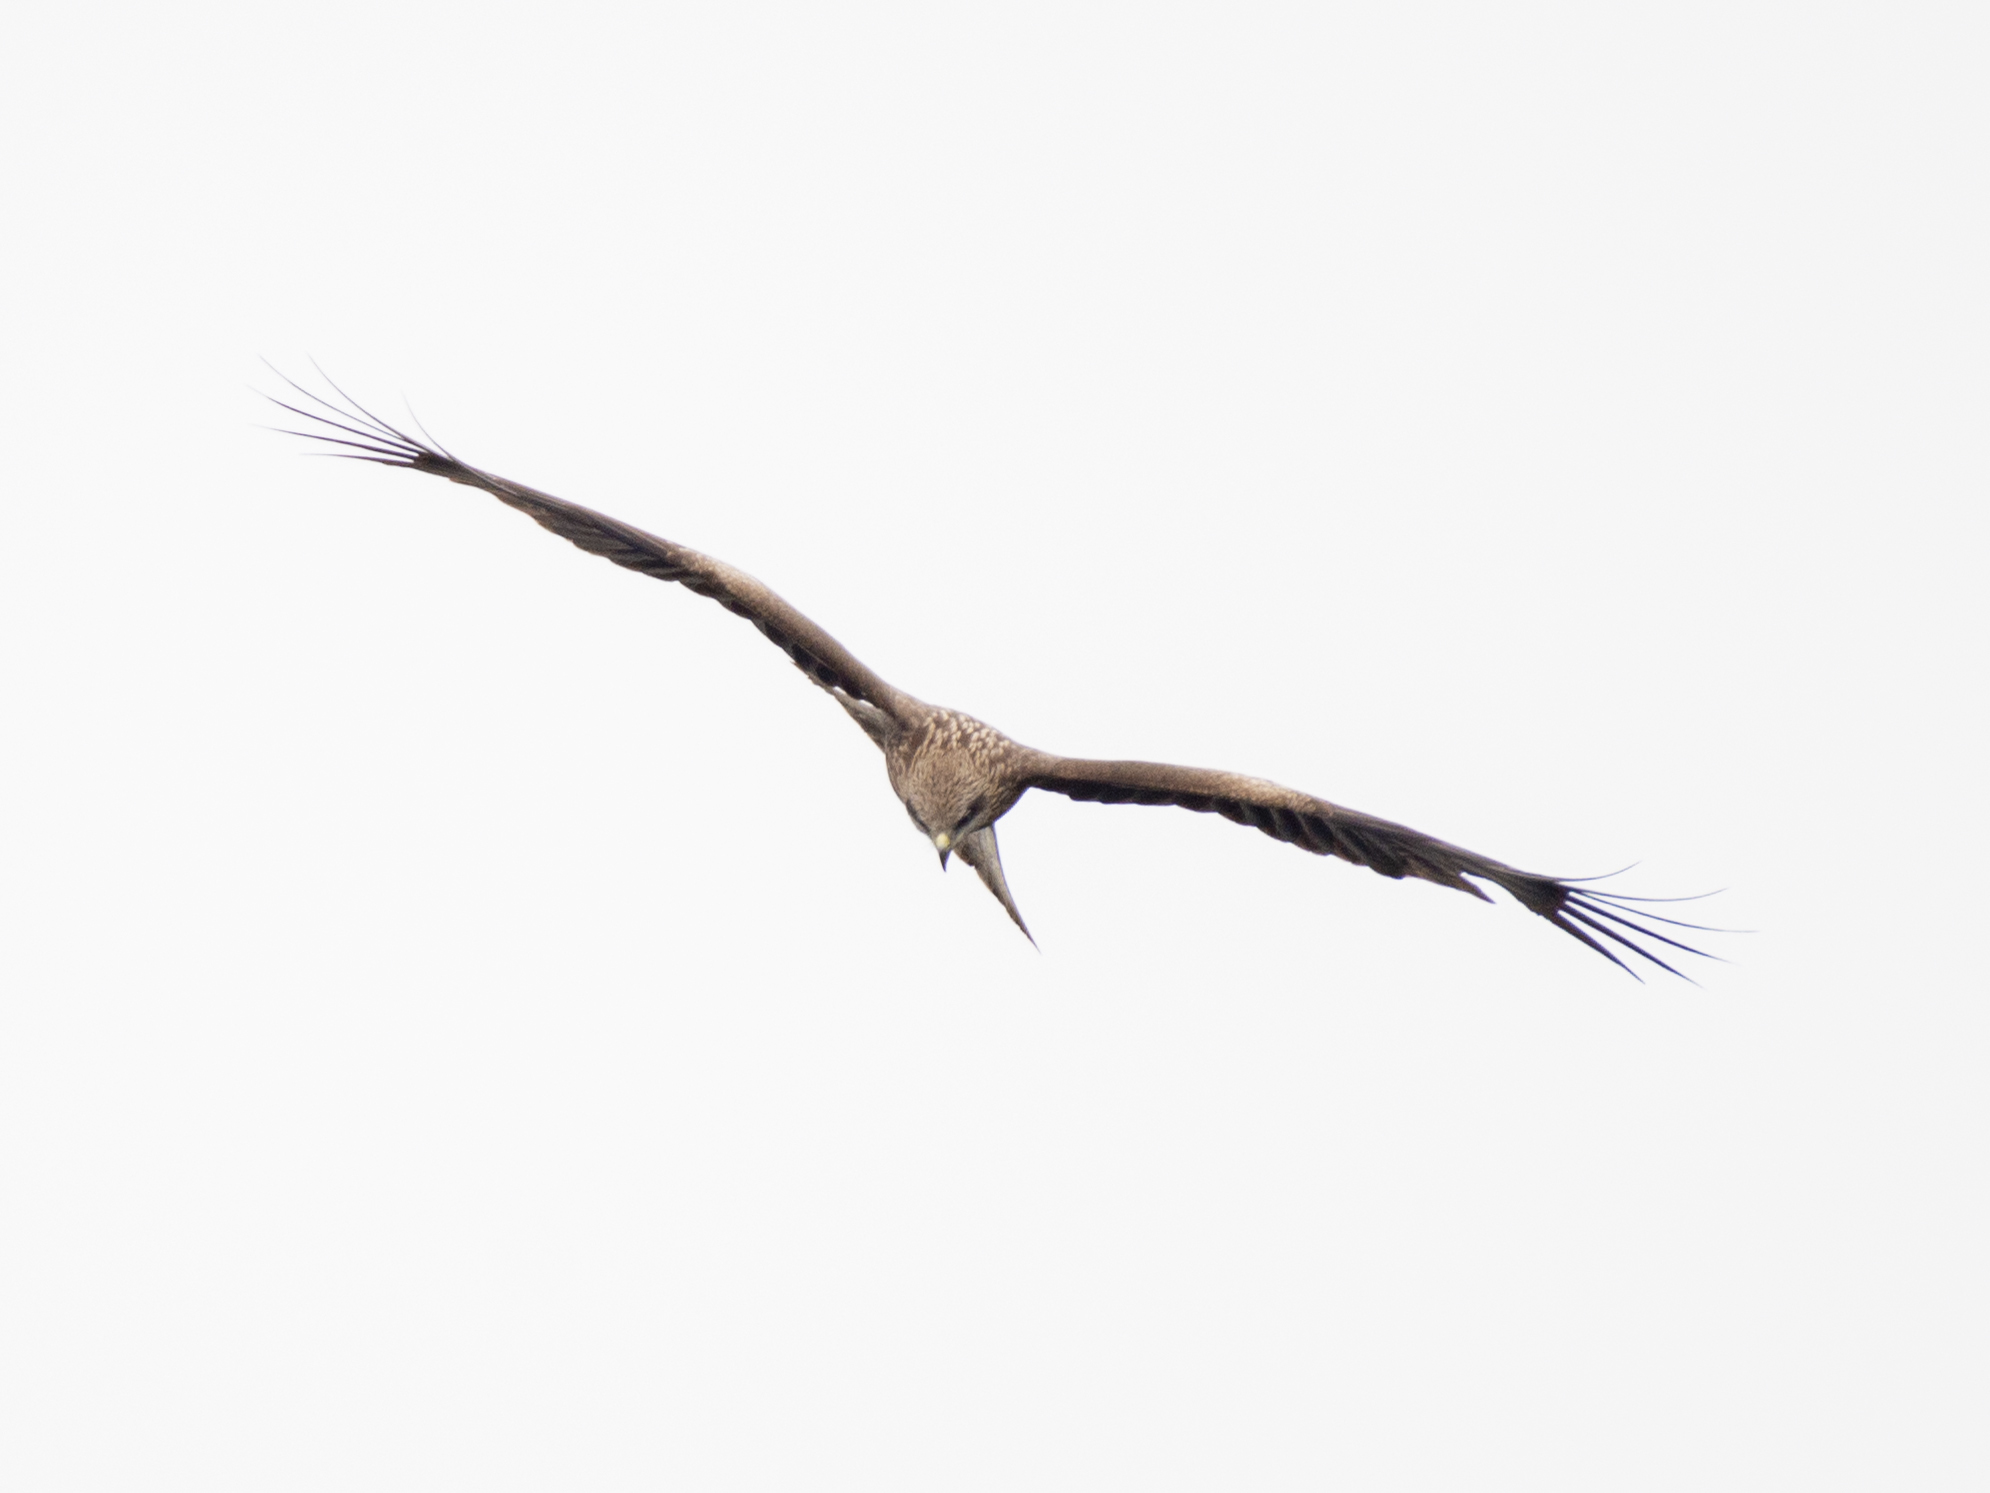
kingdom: Animalia
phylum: Chordata
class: Aves
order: Accipitriformes
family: Accipitridae
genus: Milvus
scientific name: Milvus migrans
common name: Black kite
